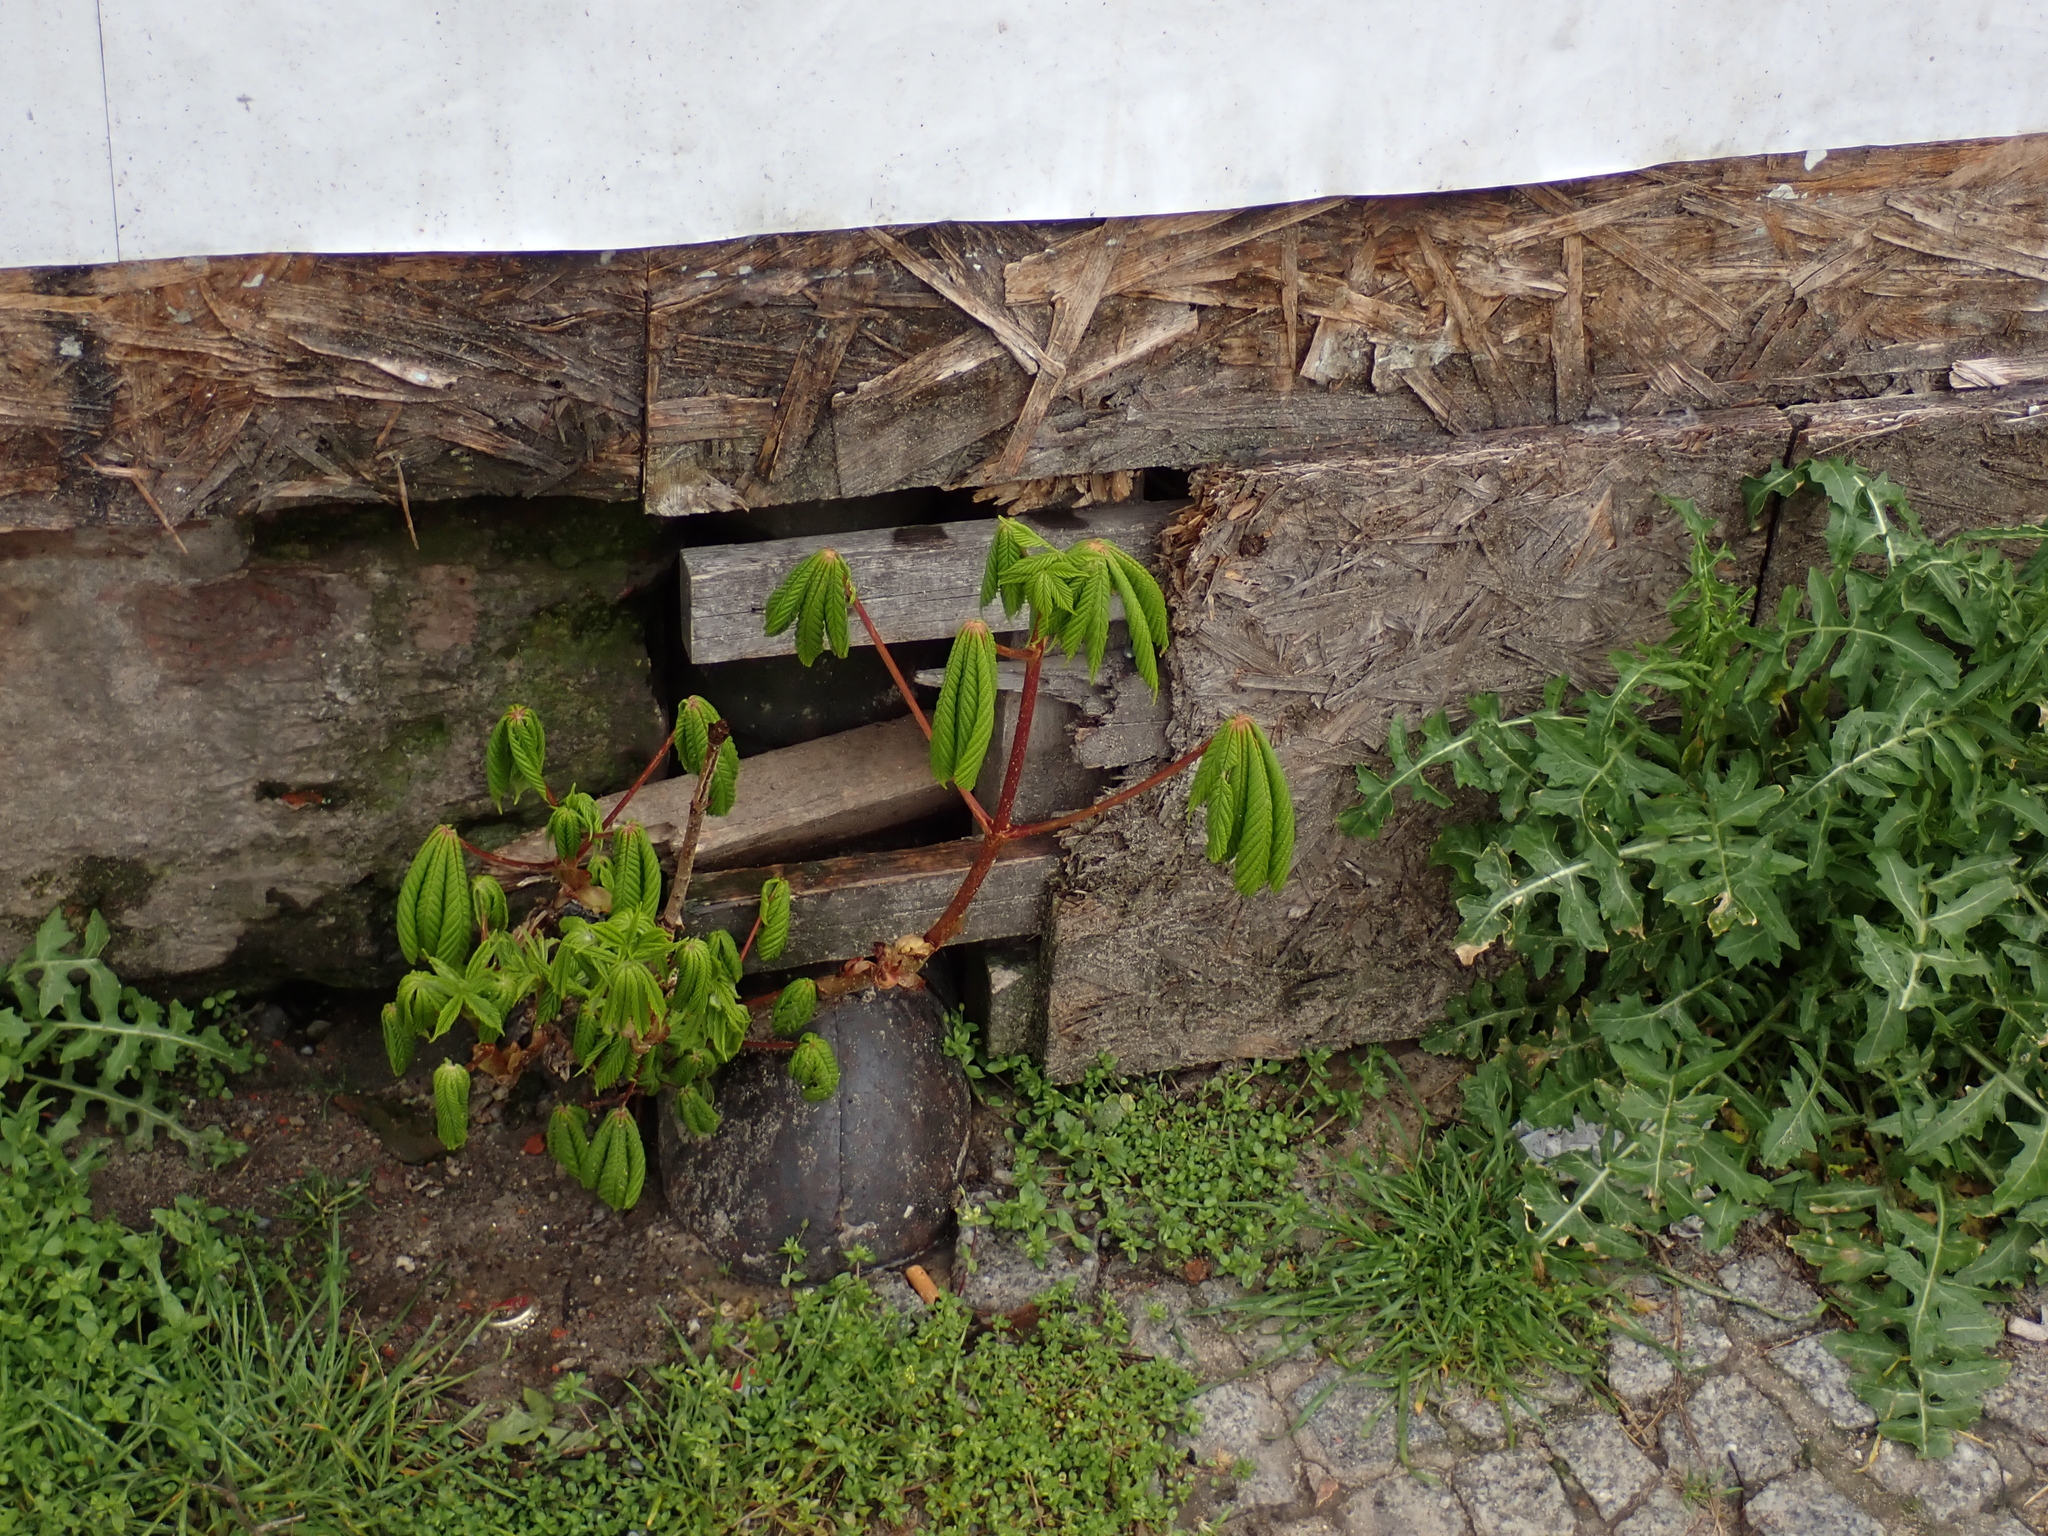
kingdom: Plantae
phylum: Tracheophyta
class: Magnoliopsida
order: Sapindales
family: Sapindaceae
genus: Aesculus
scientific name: Aesculus hippocastanum
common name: Horse-chestnut
